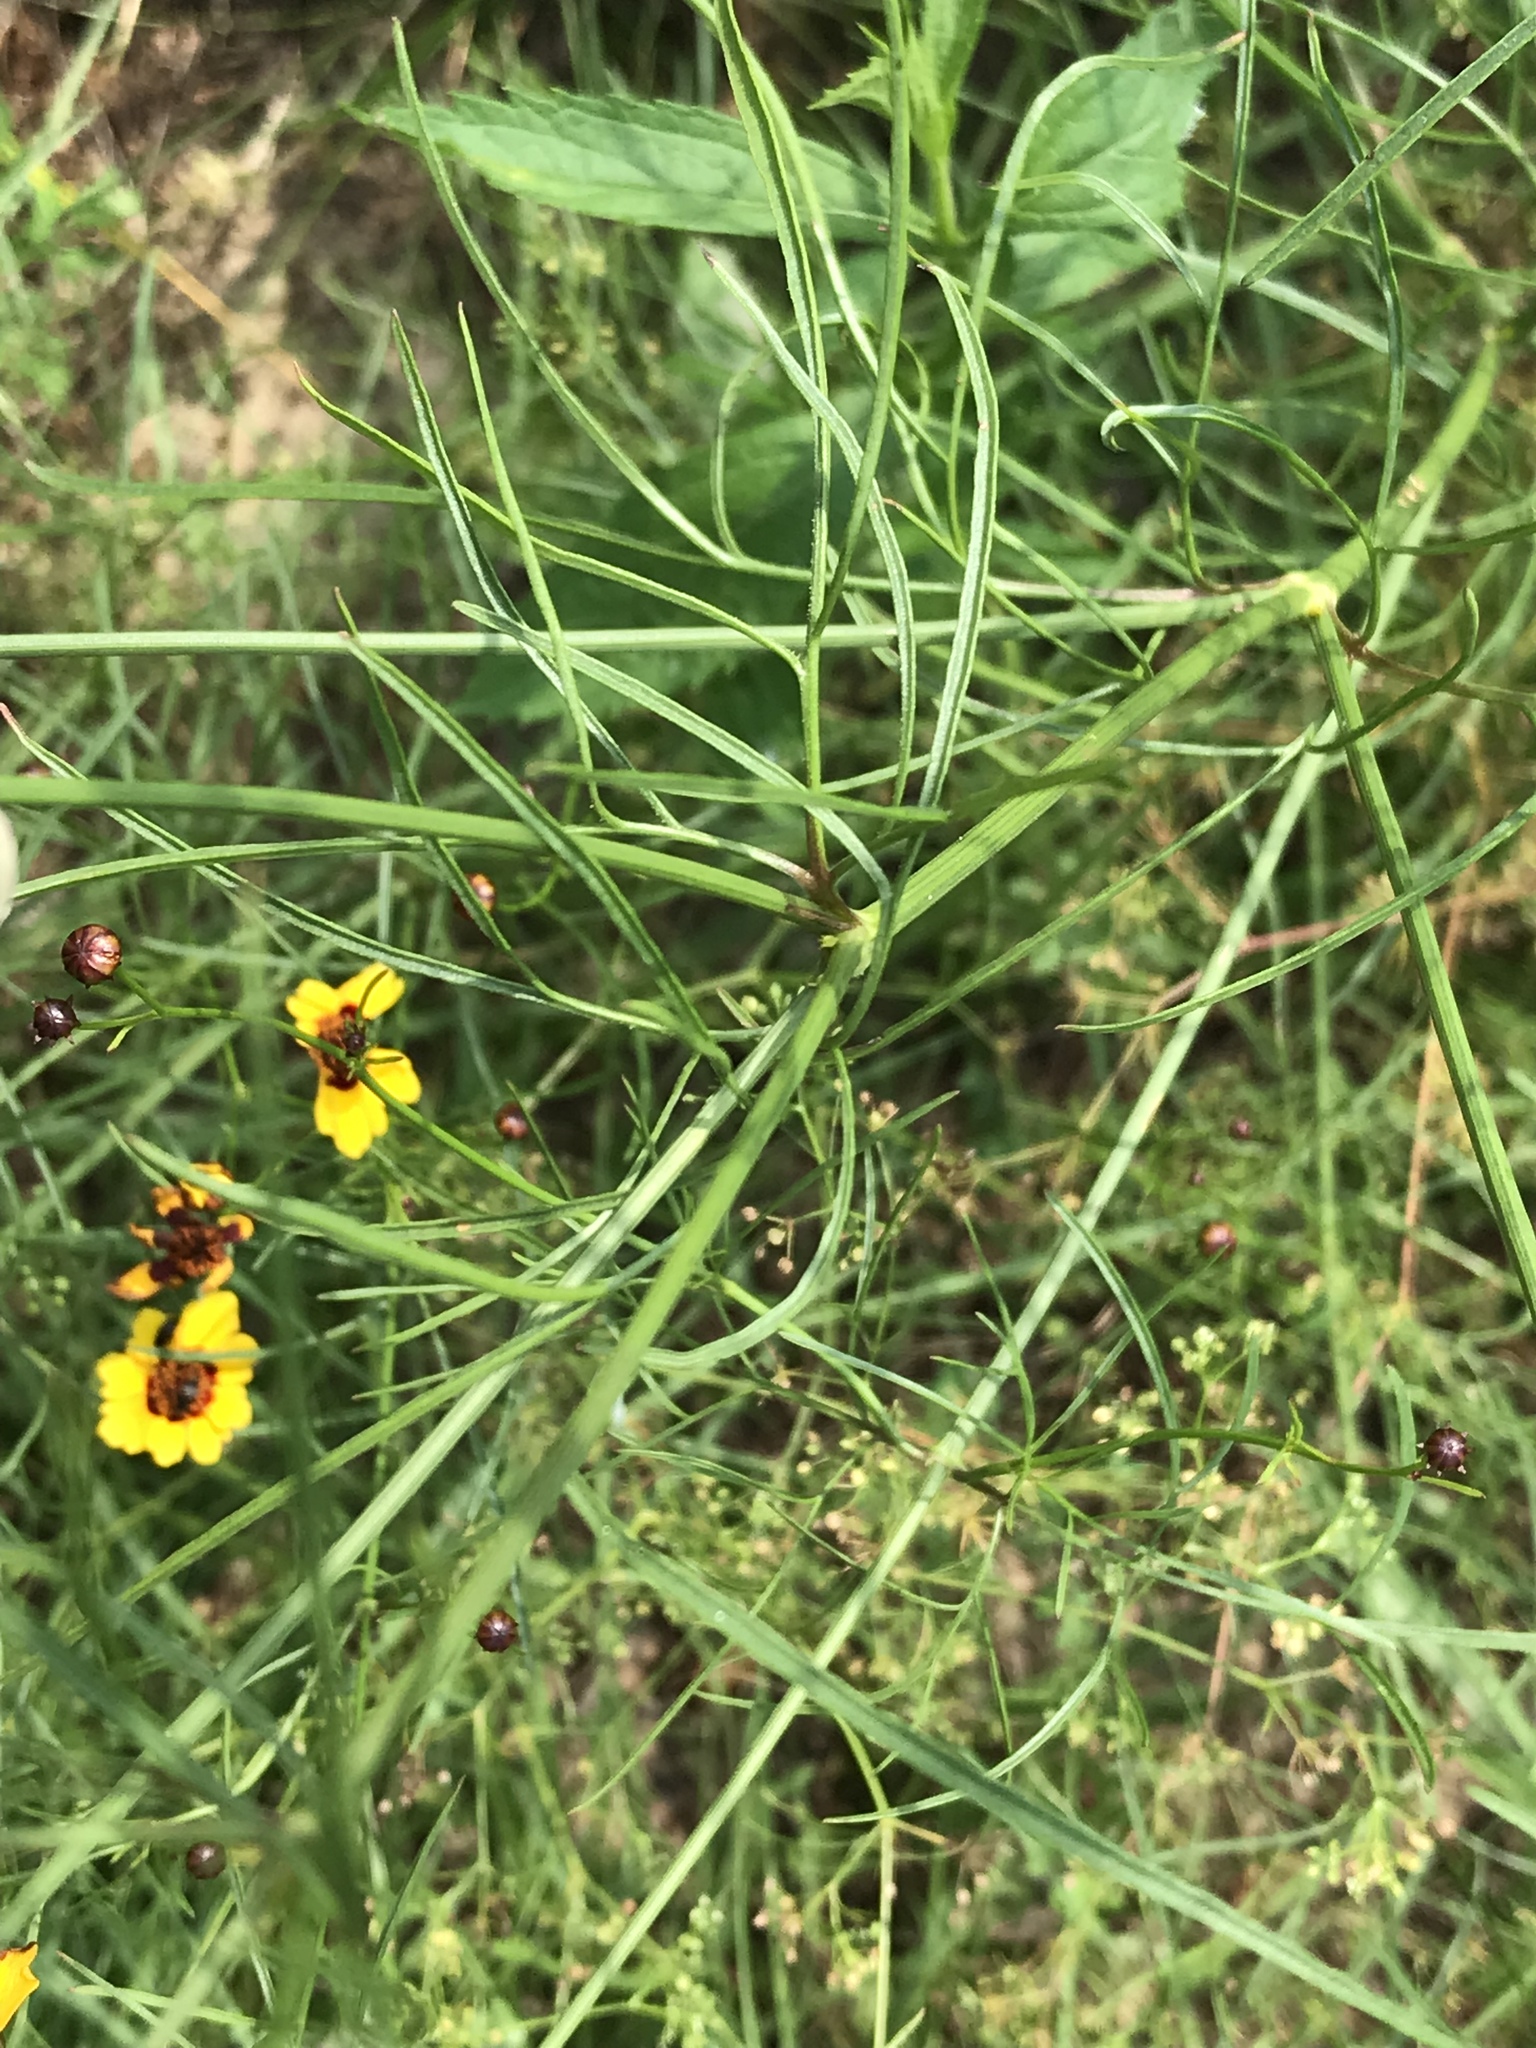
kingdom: Plantae
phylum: Tracheophyta
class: Magnoliopsida
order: Asterales
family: Asteraceae
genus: Coreopsis
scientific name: Coreopsis tinctoria
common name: Garden tickseed
